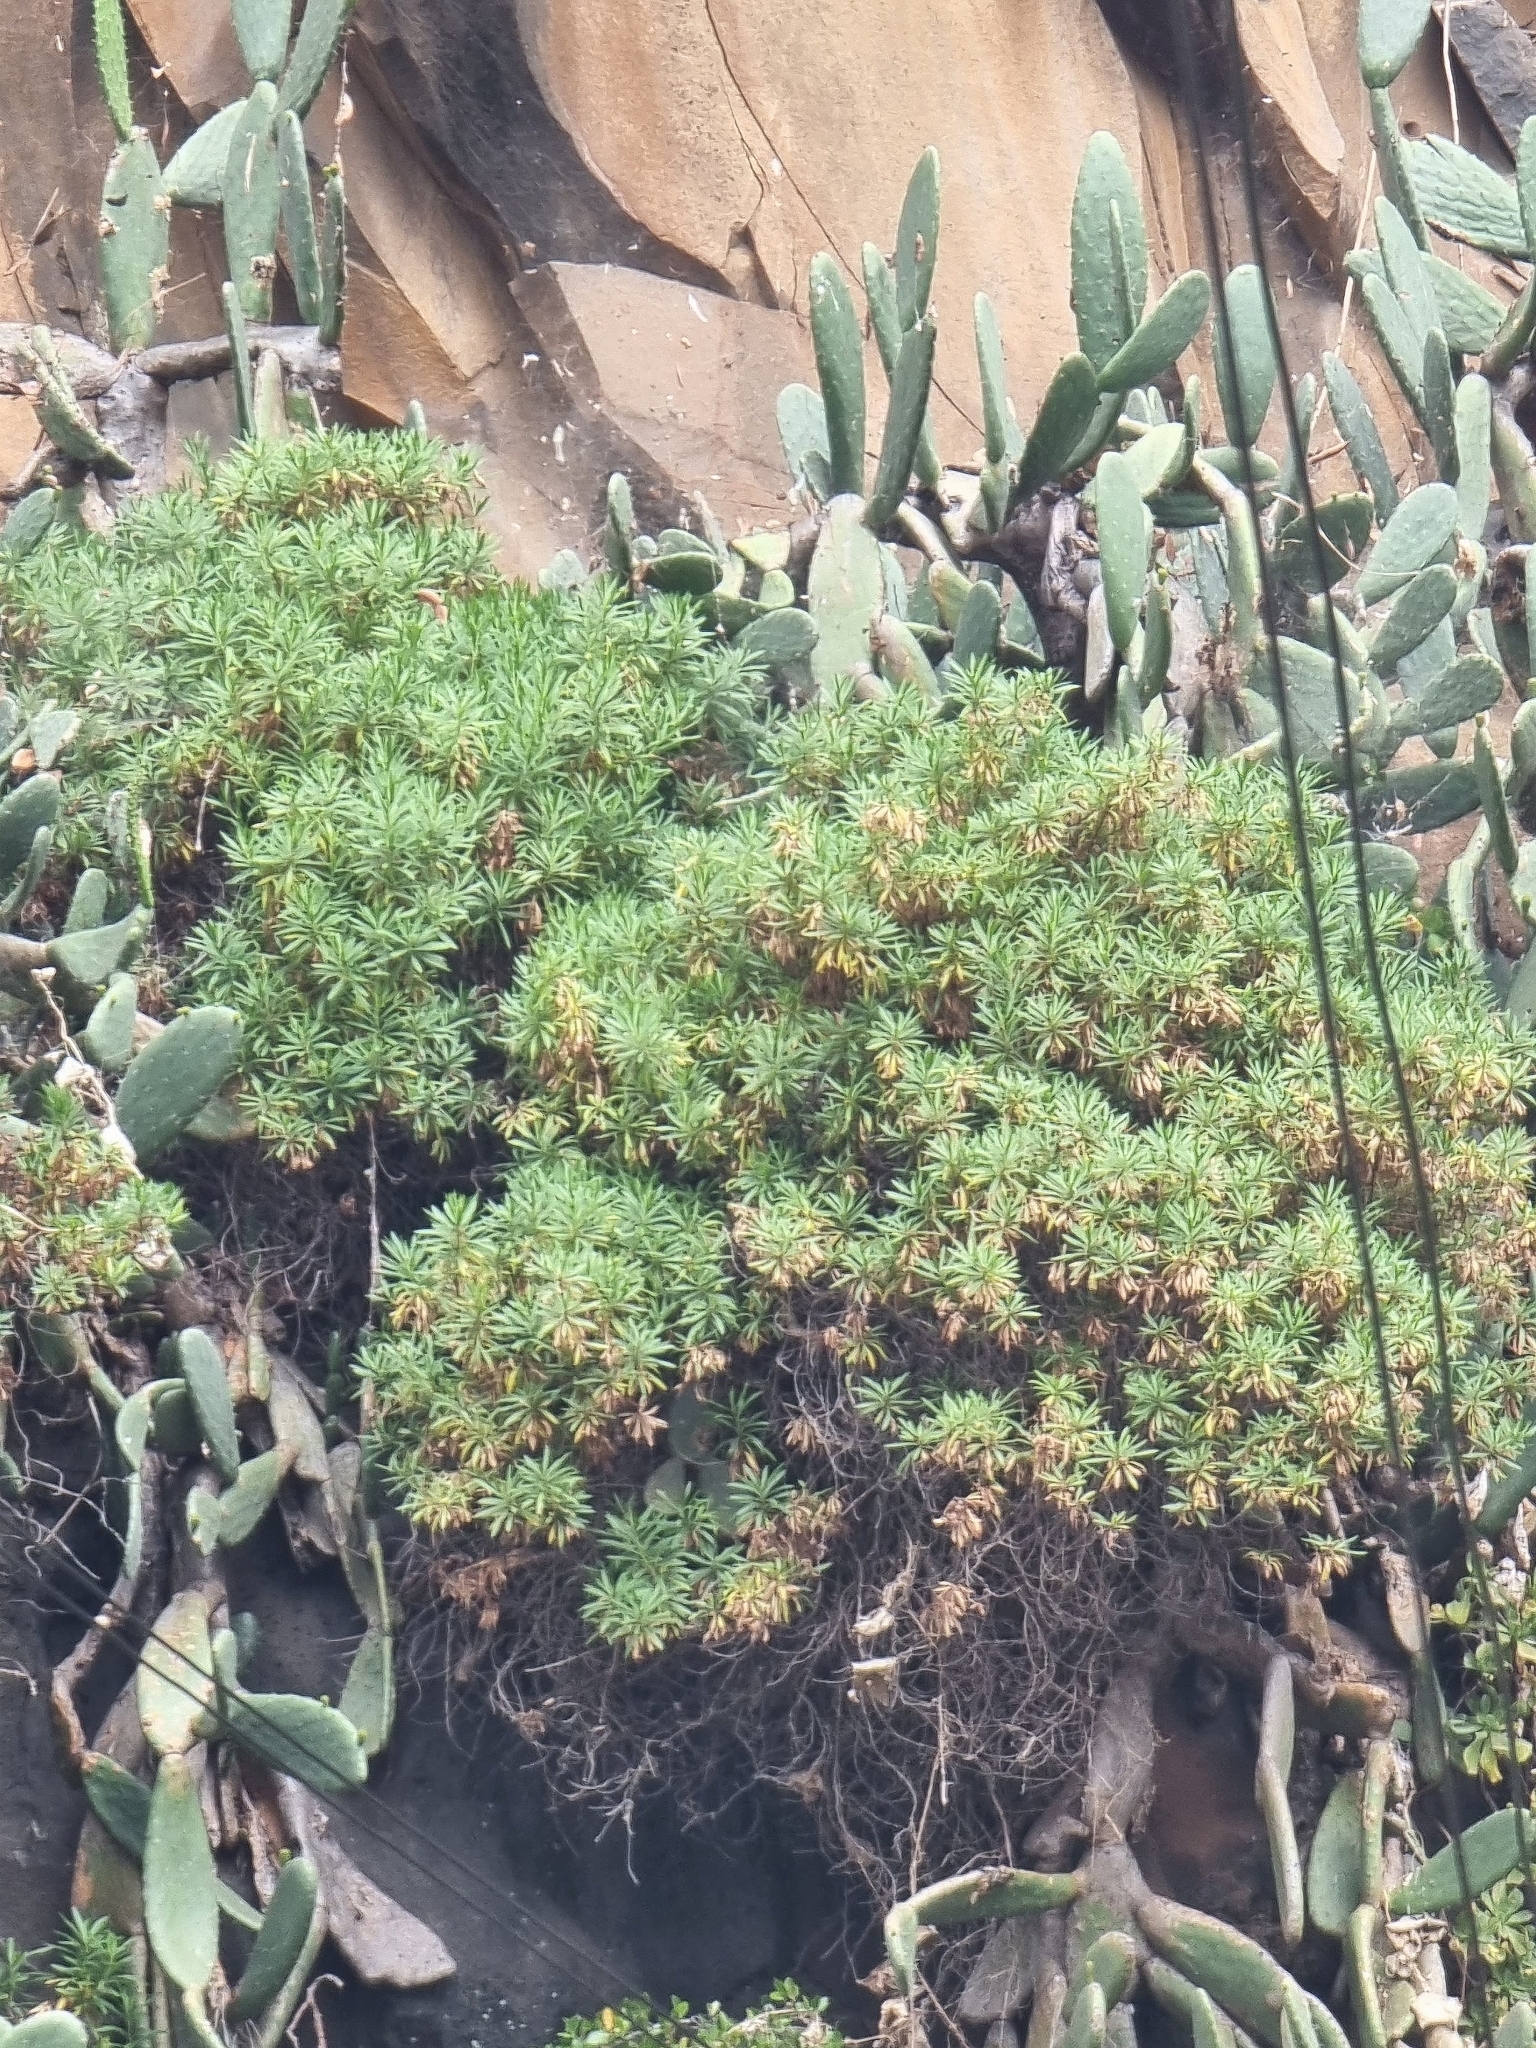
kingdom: Plantae
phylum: Tracheophyta
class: Magnoliopsida
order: Lamiales
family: Plantaginaceae
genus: Globularia
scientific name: Globularia salicina
